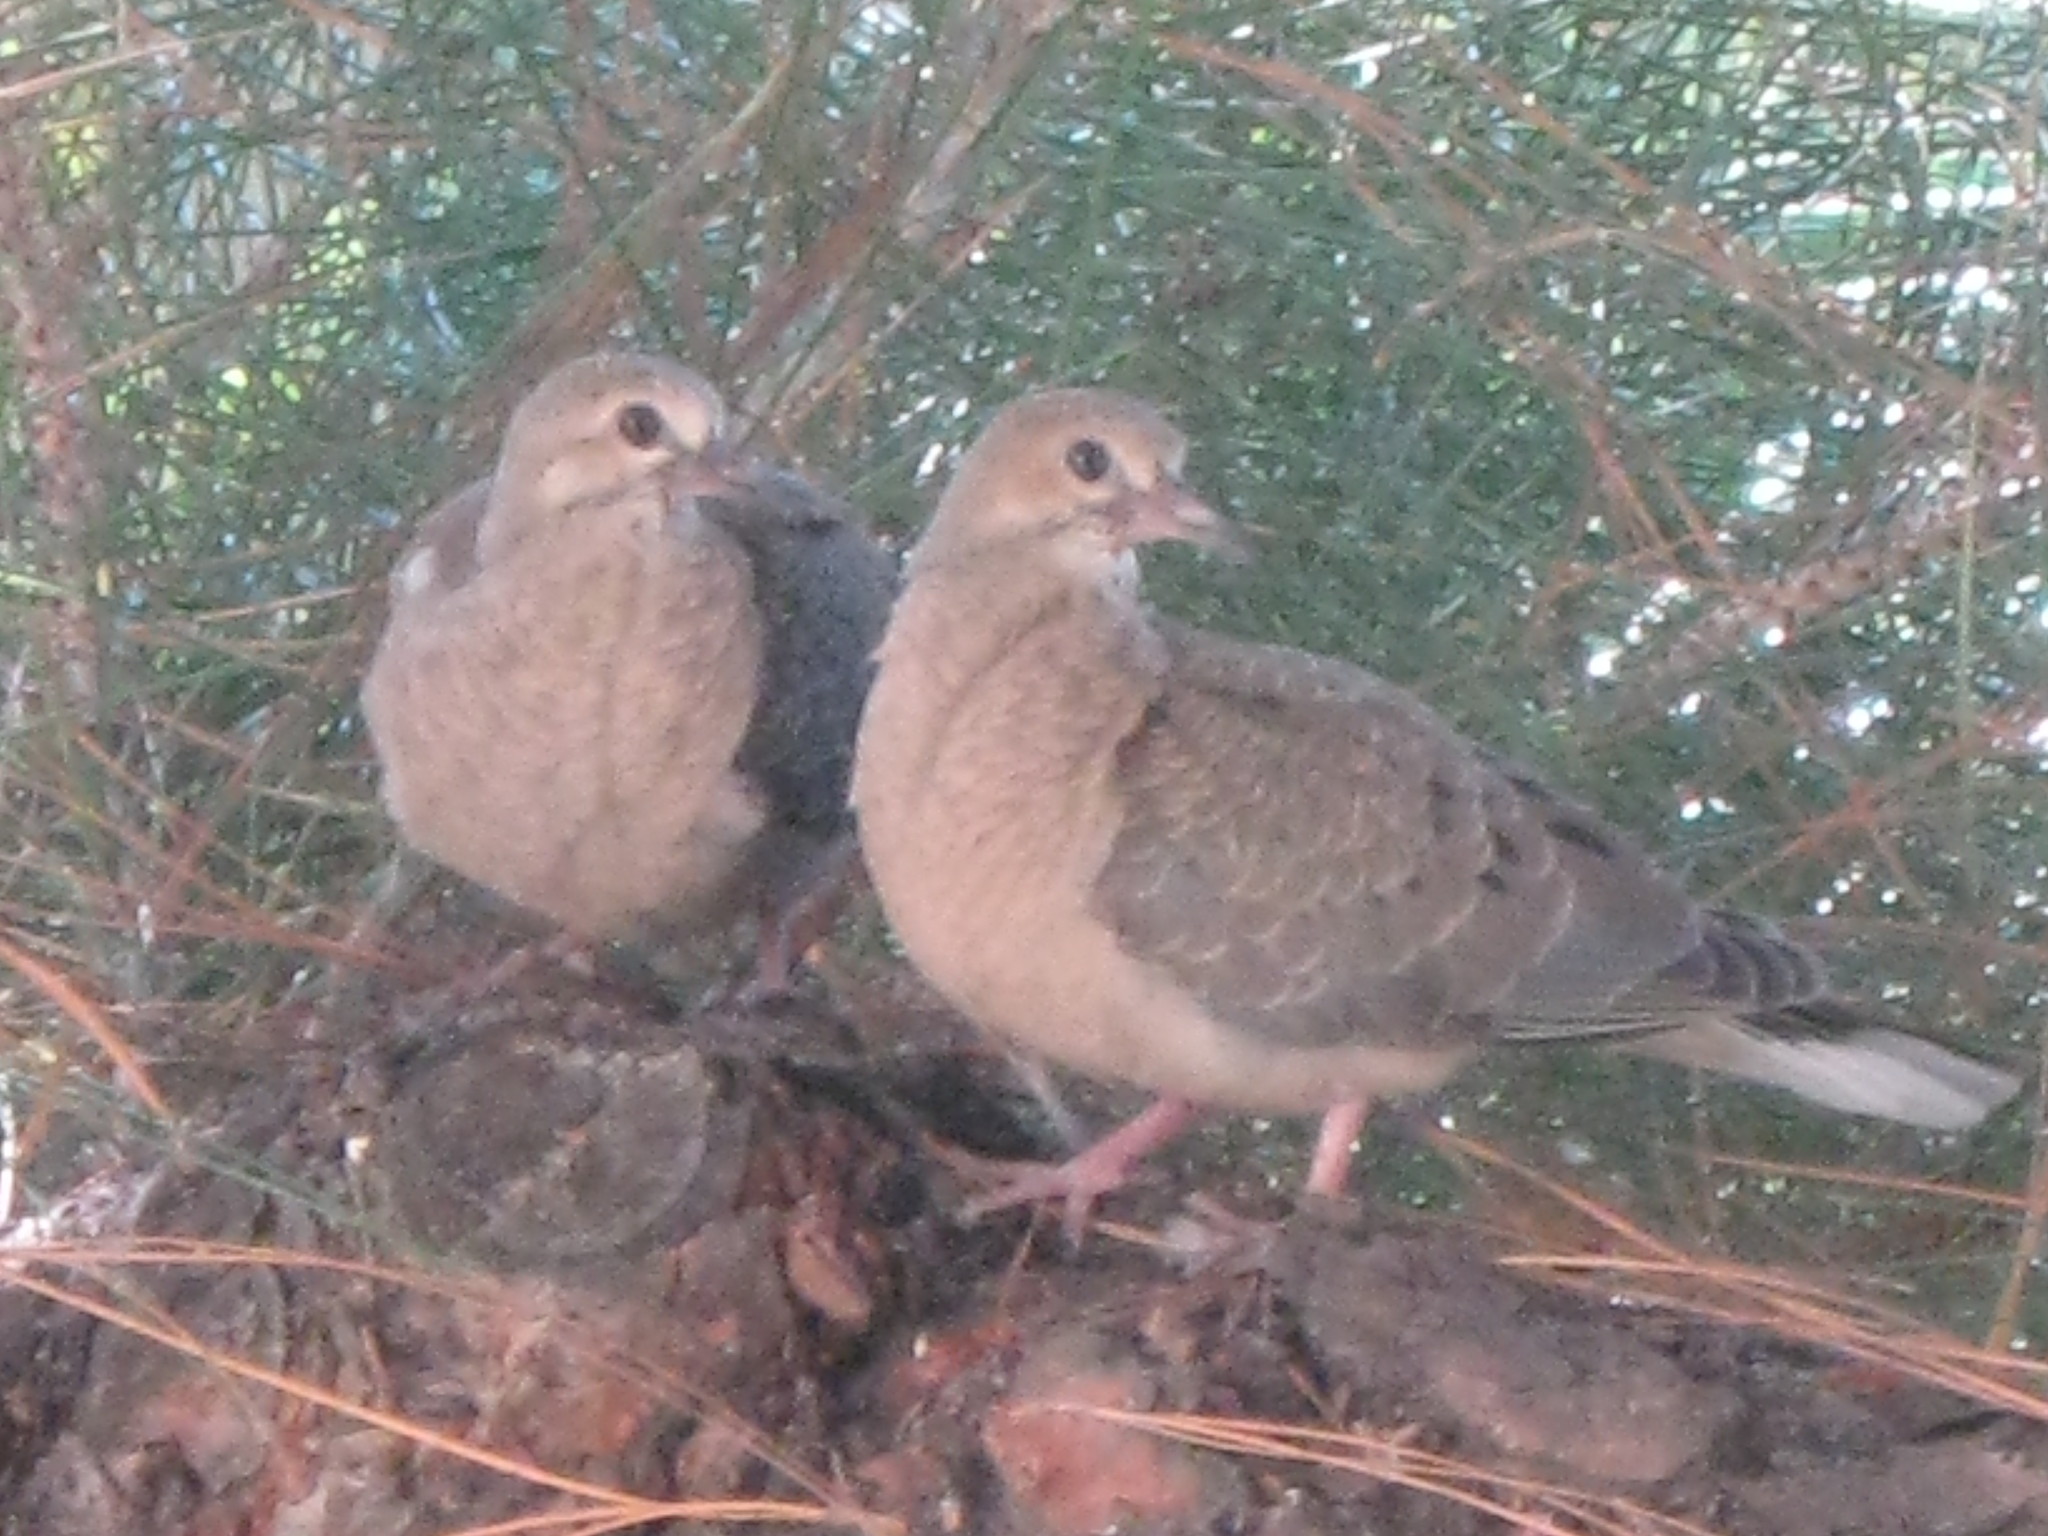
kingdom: Animalia
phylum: Chordata
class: Aves
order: Columbiformes
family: Columbidae
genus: Zenaida
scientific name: Zenaida macroura
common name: Mourning dove
